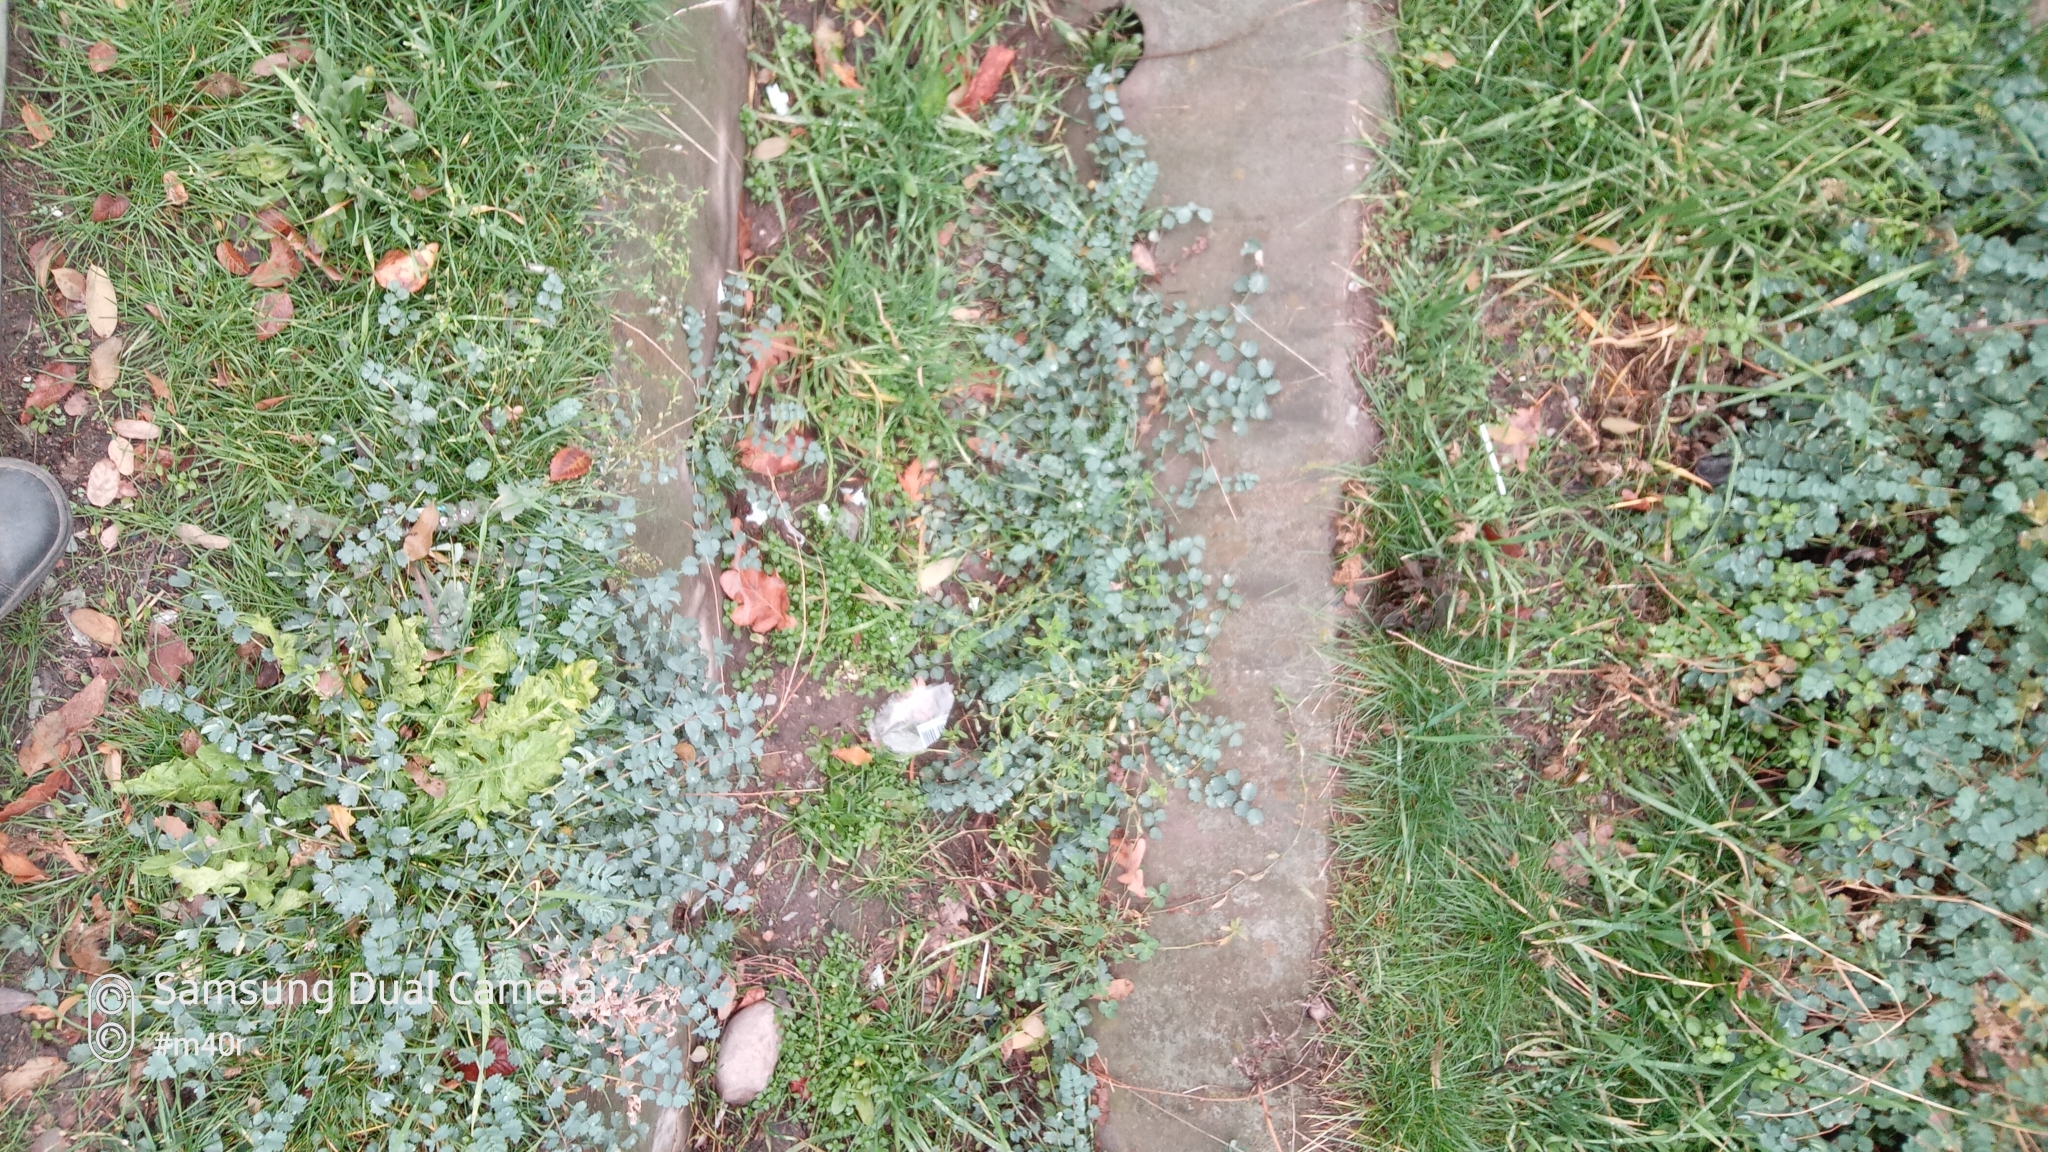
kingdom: Plantae
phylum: Tracheophyta
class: Magnoliopsida
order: Rosales
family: Rosaceae
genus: Poterium
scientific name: Poterium sanguisorba
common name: Salad burnet
